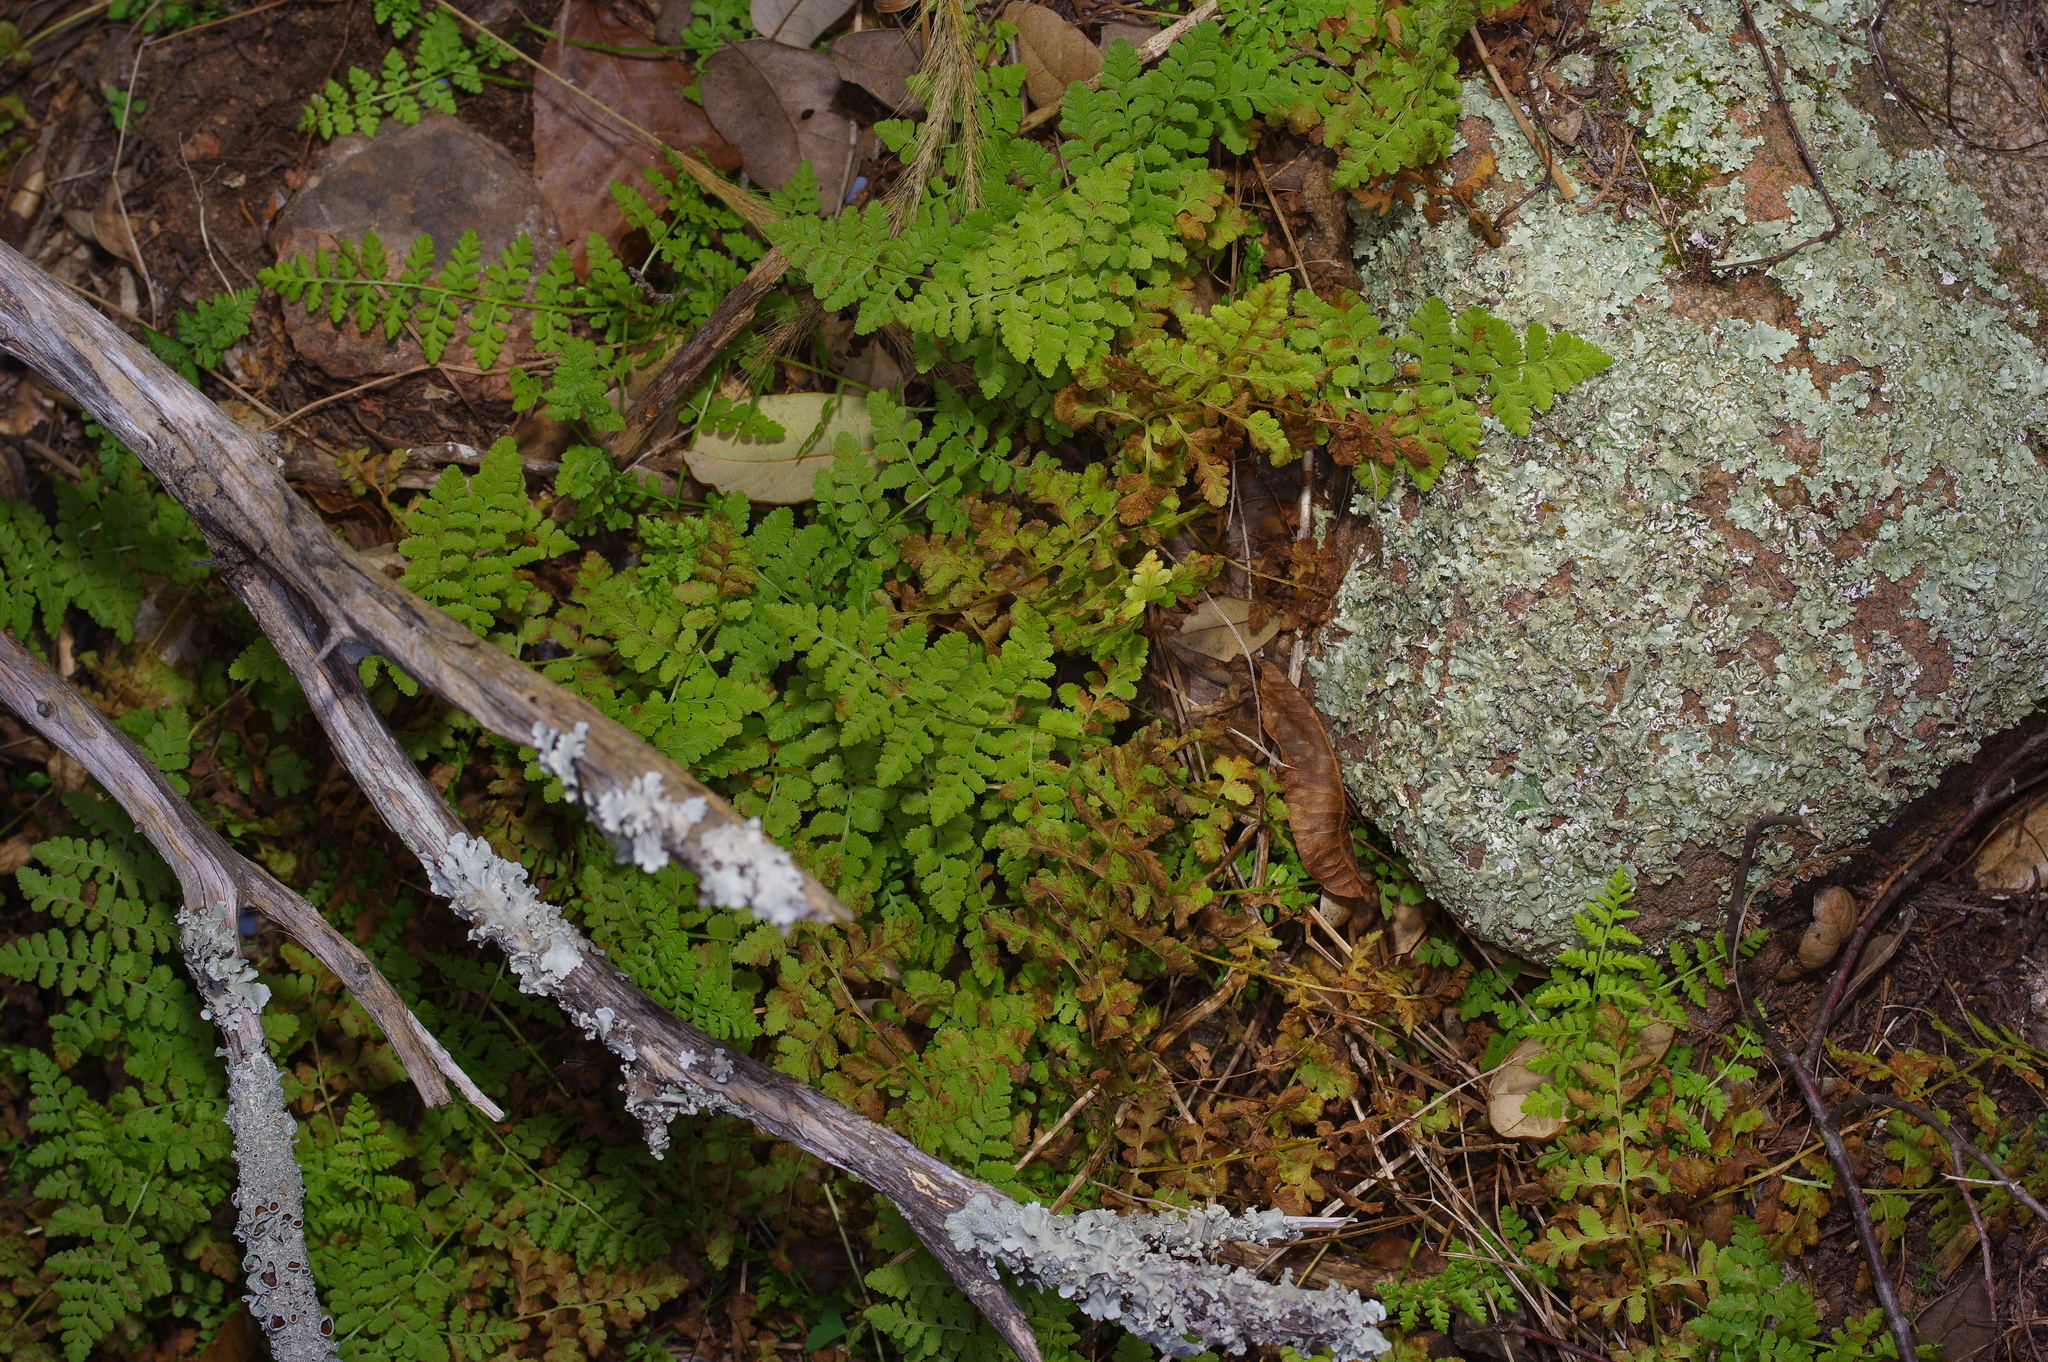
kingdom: Plantae
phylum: Tracheophyta
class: Polypodiopsida
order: Polypodiales
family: Woodsiaceae
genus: Physematium
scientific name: Physematium obtusum
